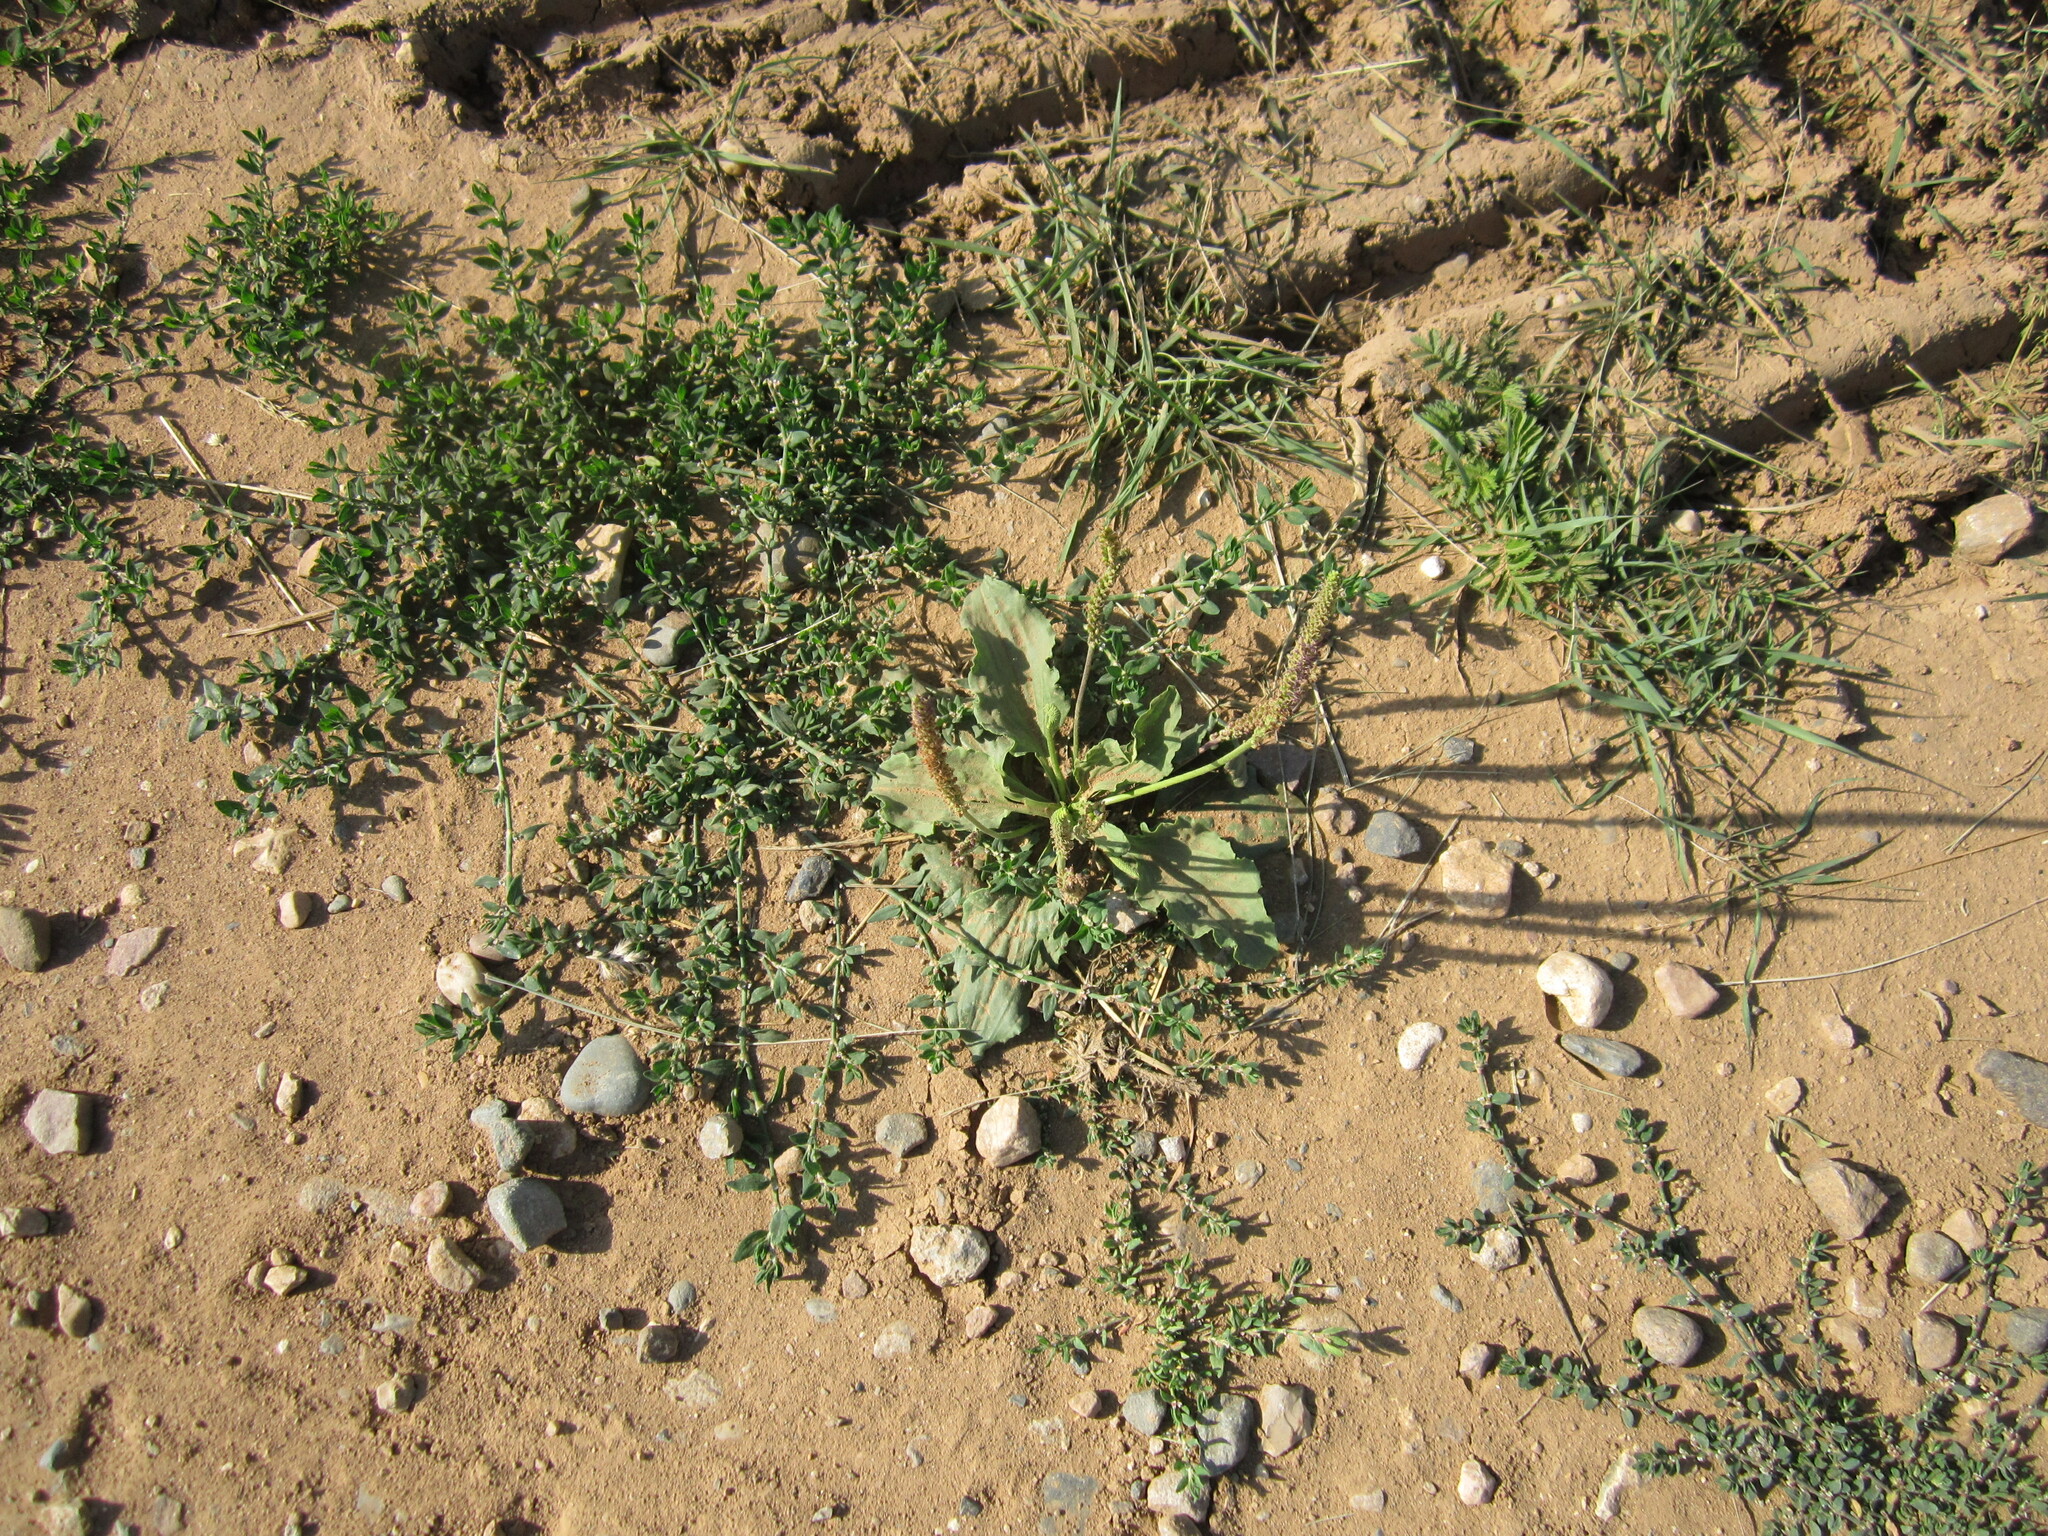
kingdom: Plantae
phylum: Tracheophyta
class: Magnoliopsida
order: Lamiales
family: Plantaginaceae
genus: Plantago
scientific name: Plantago major
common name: Common plantain
